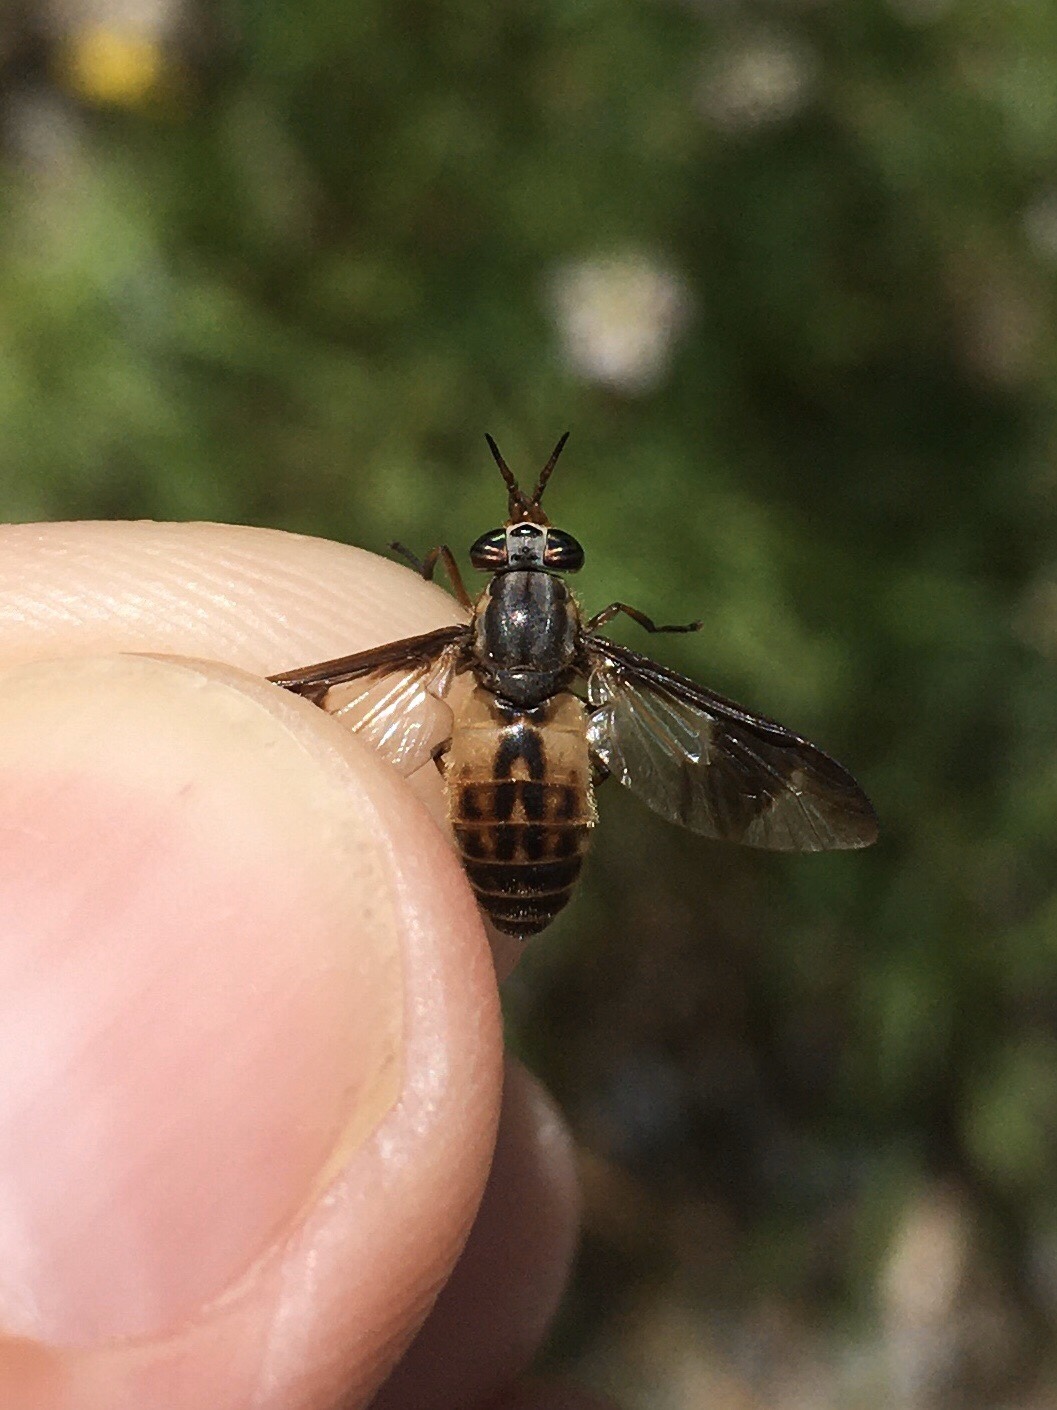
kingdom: Animalia
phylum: Arthropoda
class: Insecta
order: Diptera
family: Tabanidae
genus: Chrysops
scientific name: Chrysops montanus
